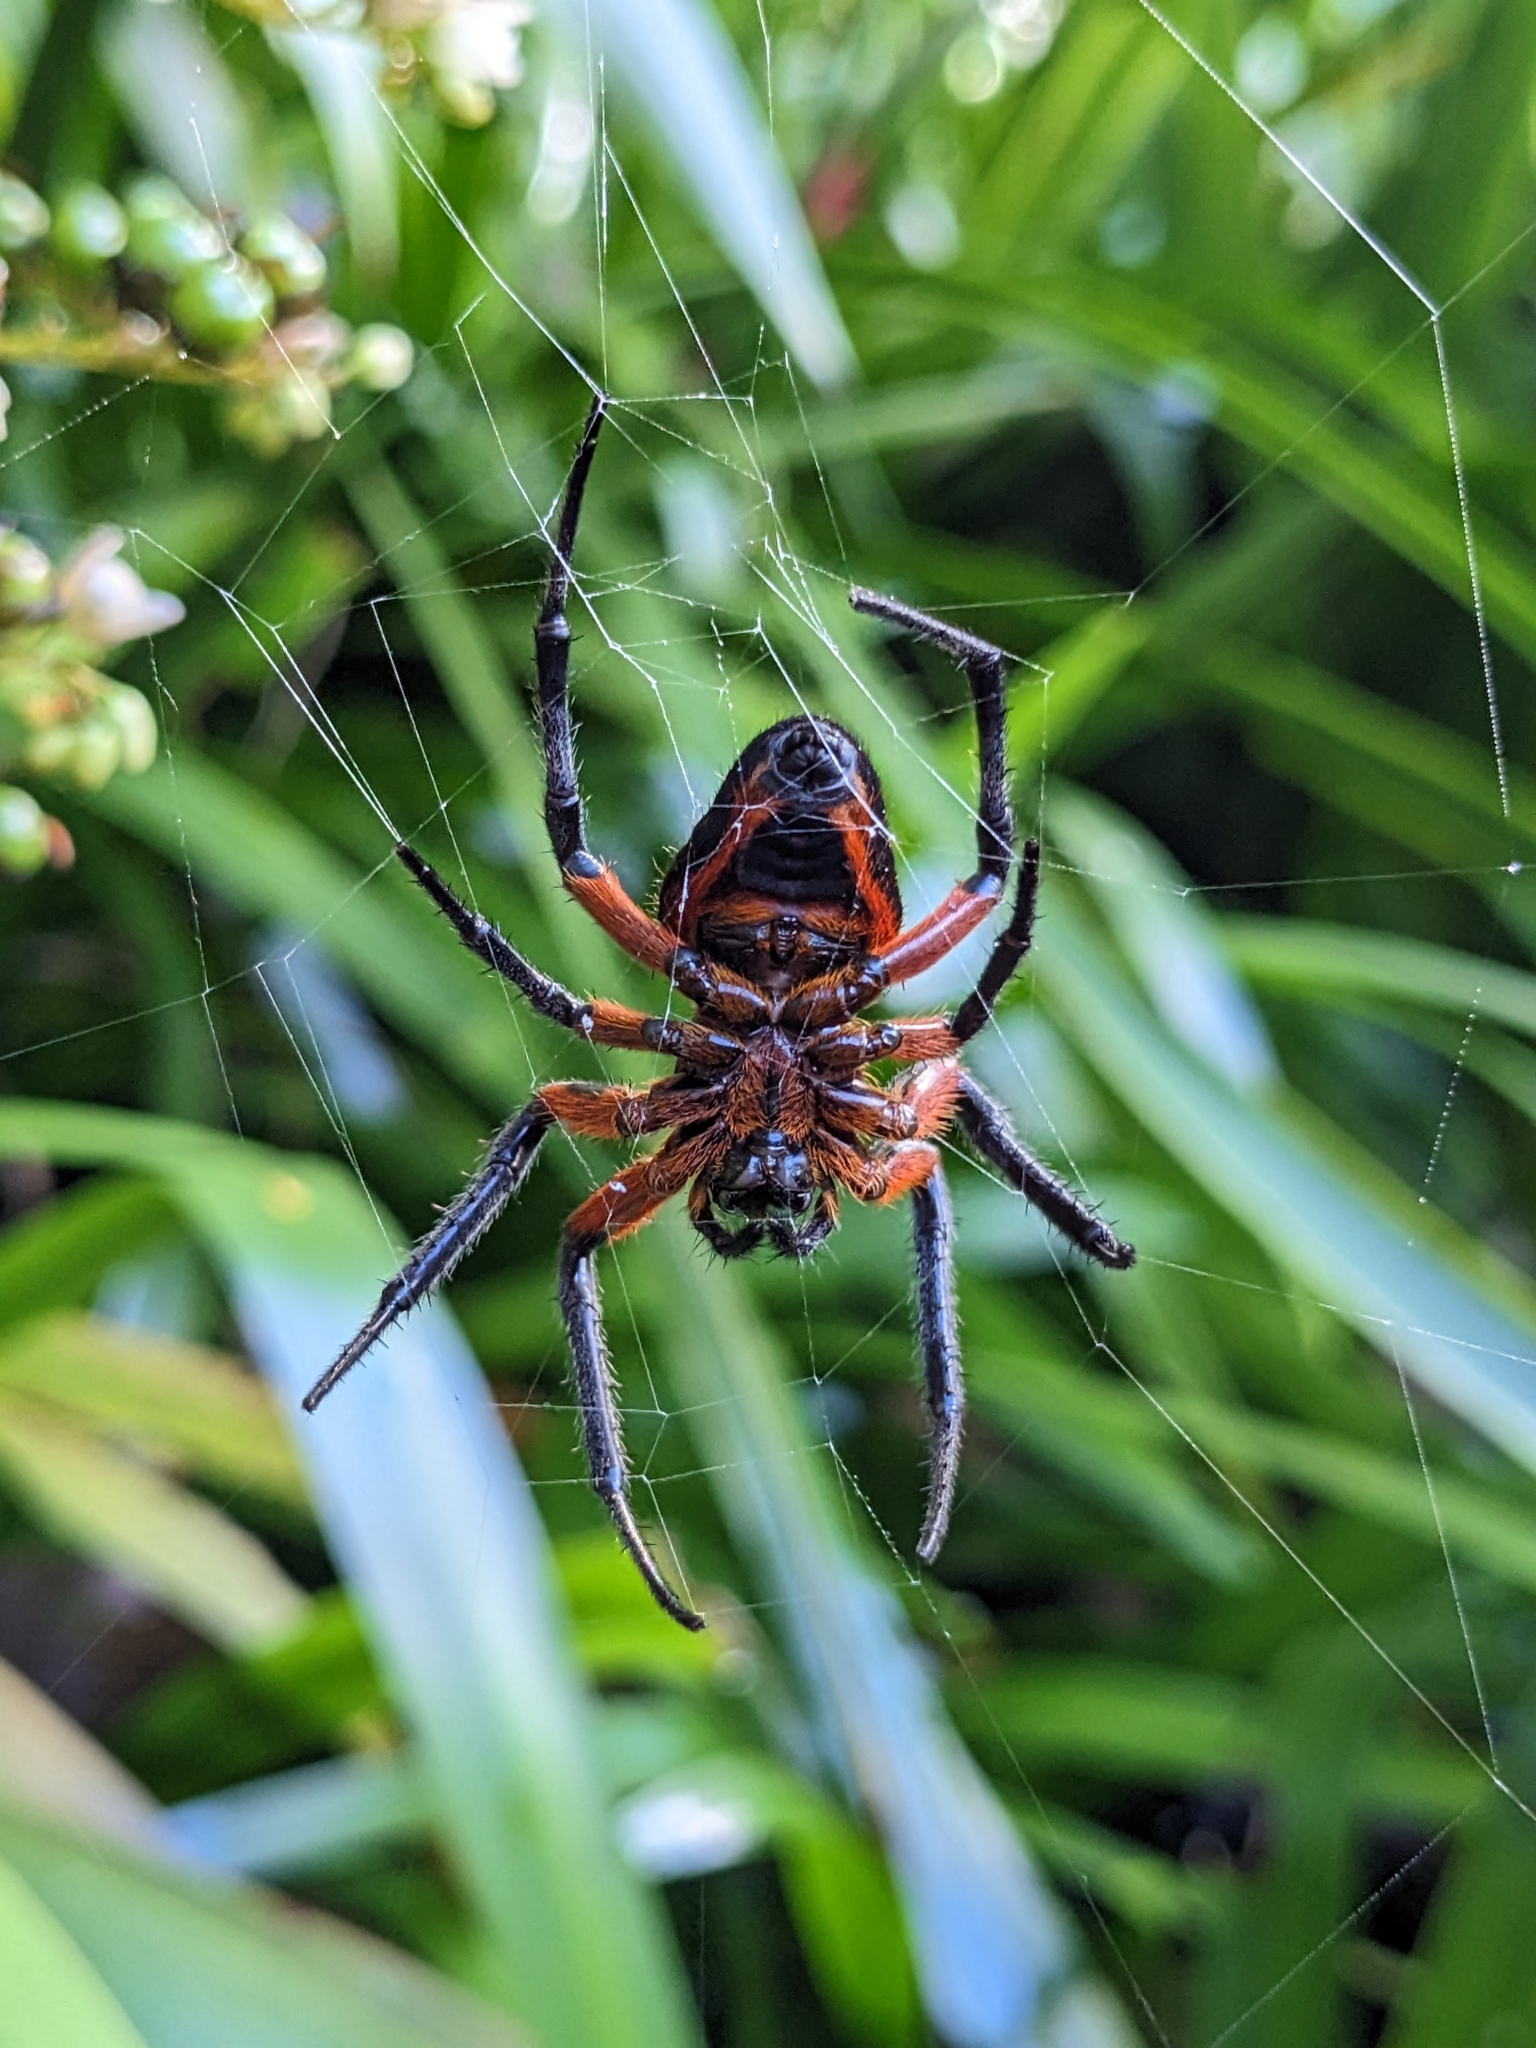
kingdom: Animalia
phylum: Arthropoda
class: Arachnida
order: Araneae
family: Araneidae
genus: Eriophora
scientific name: Eriophora fuliginea
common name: Orb weavers
